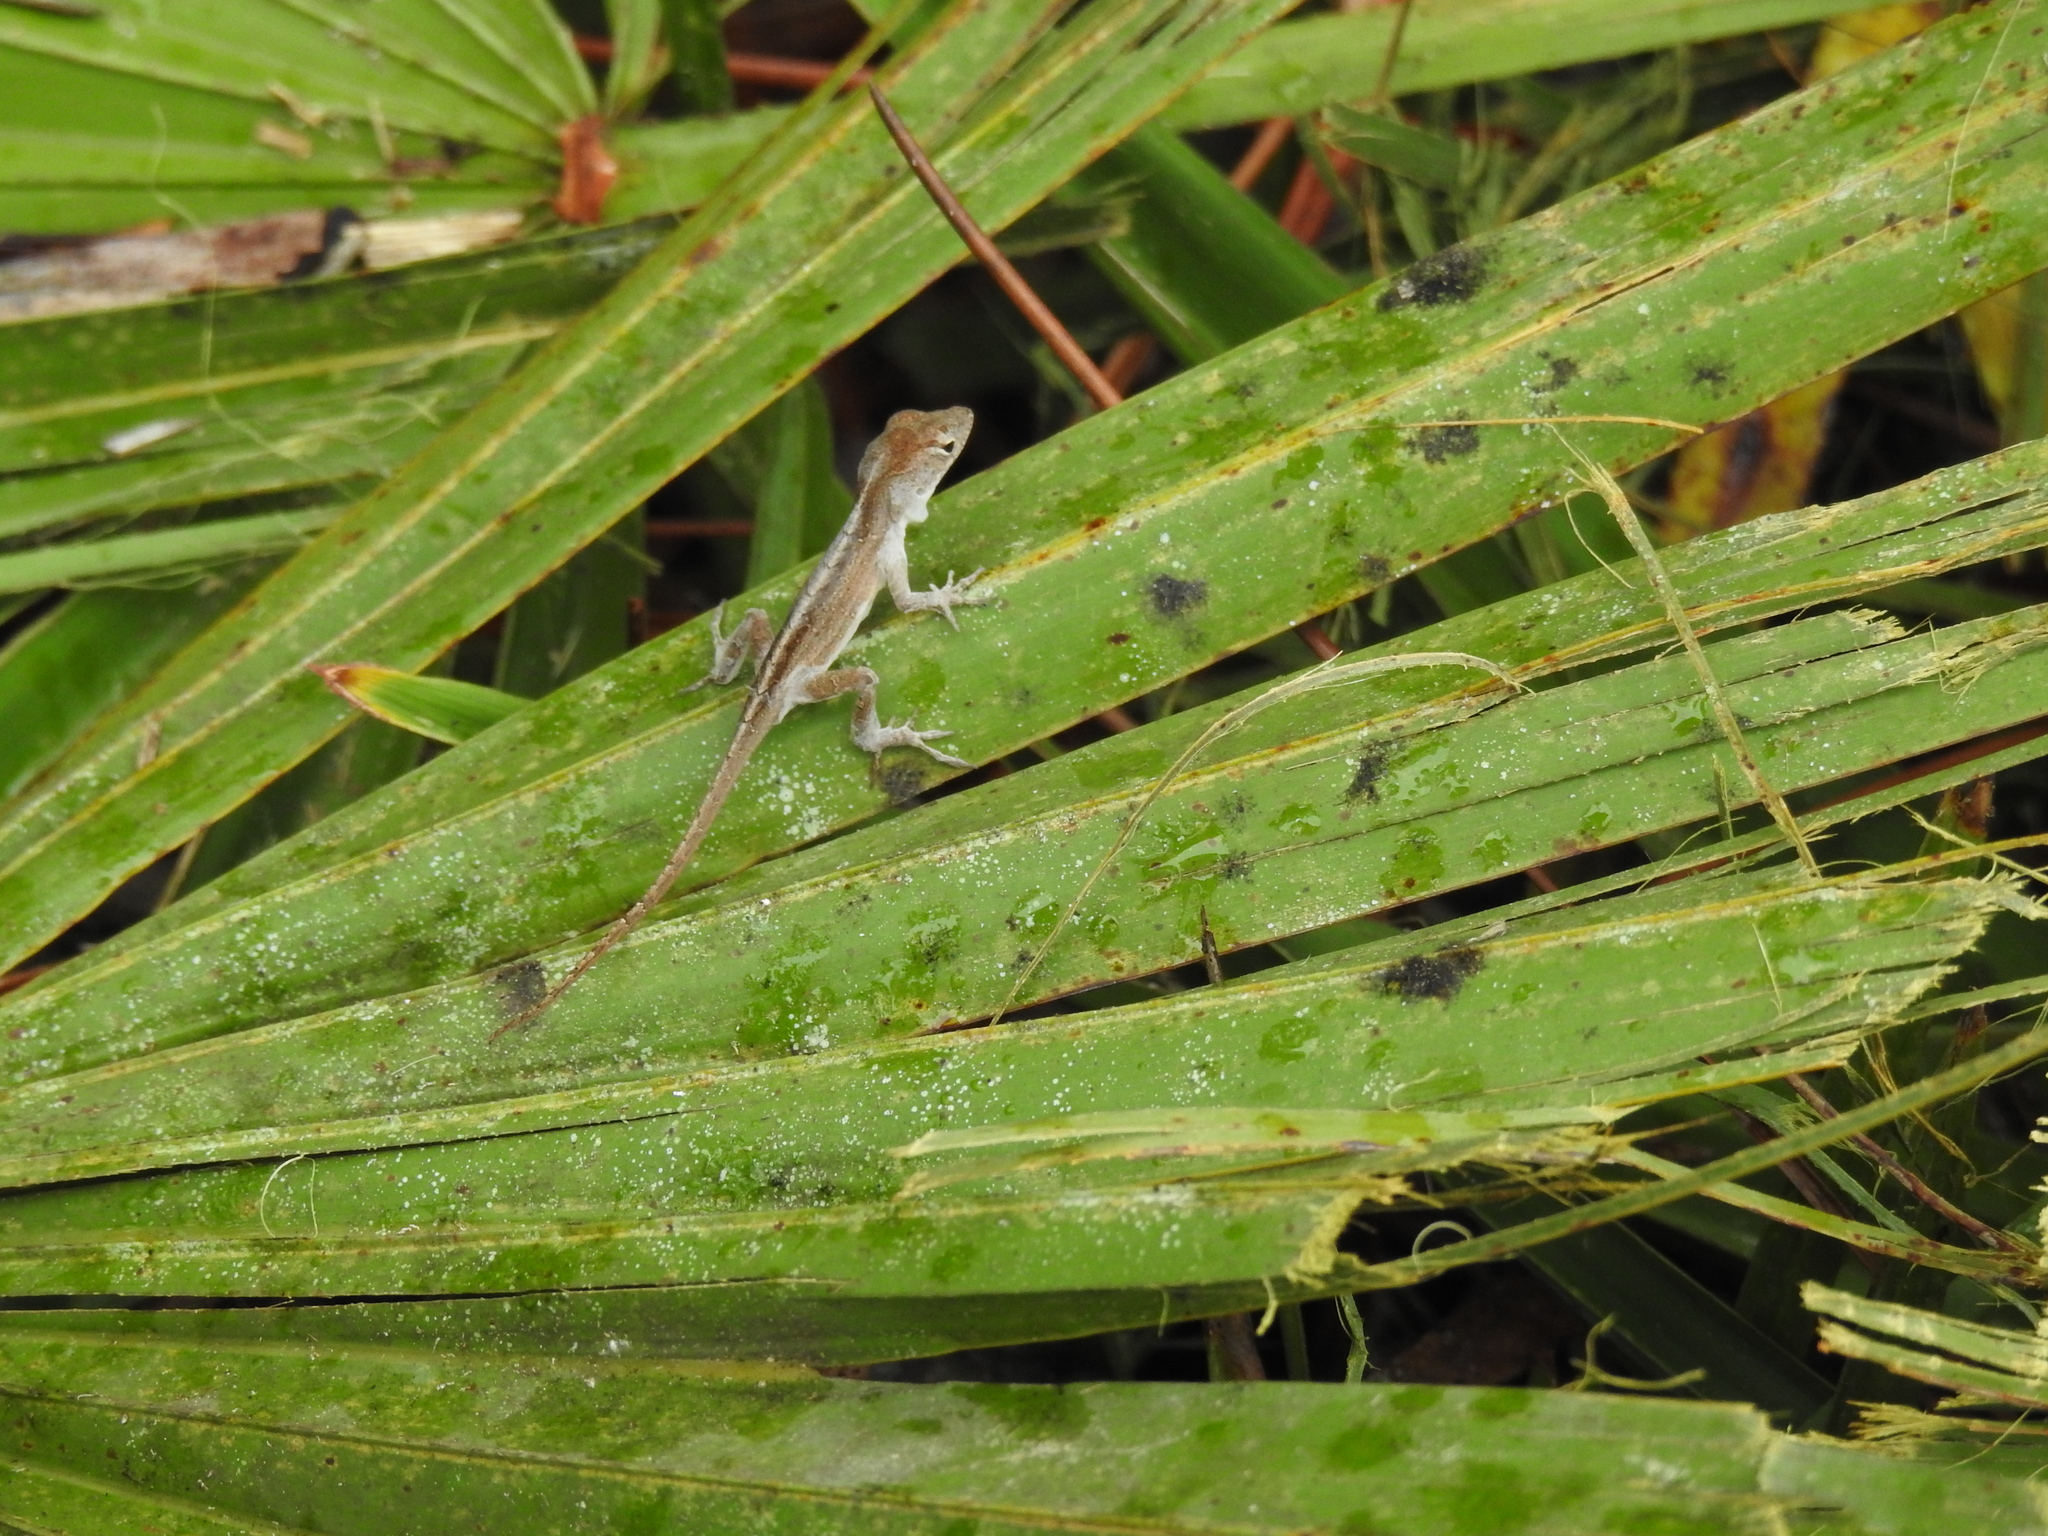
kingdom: Animalia
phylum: Chordata
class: Squamata
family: Dactyloidae
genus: Anolis
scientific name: Anolis sagrei
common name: Brown anole
